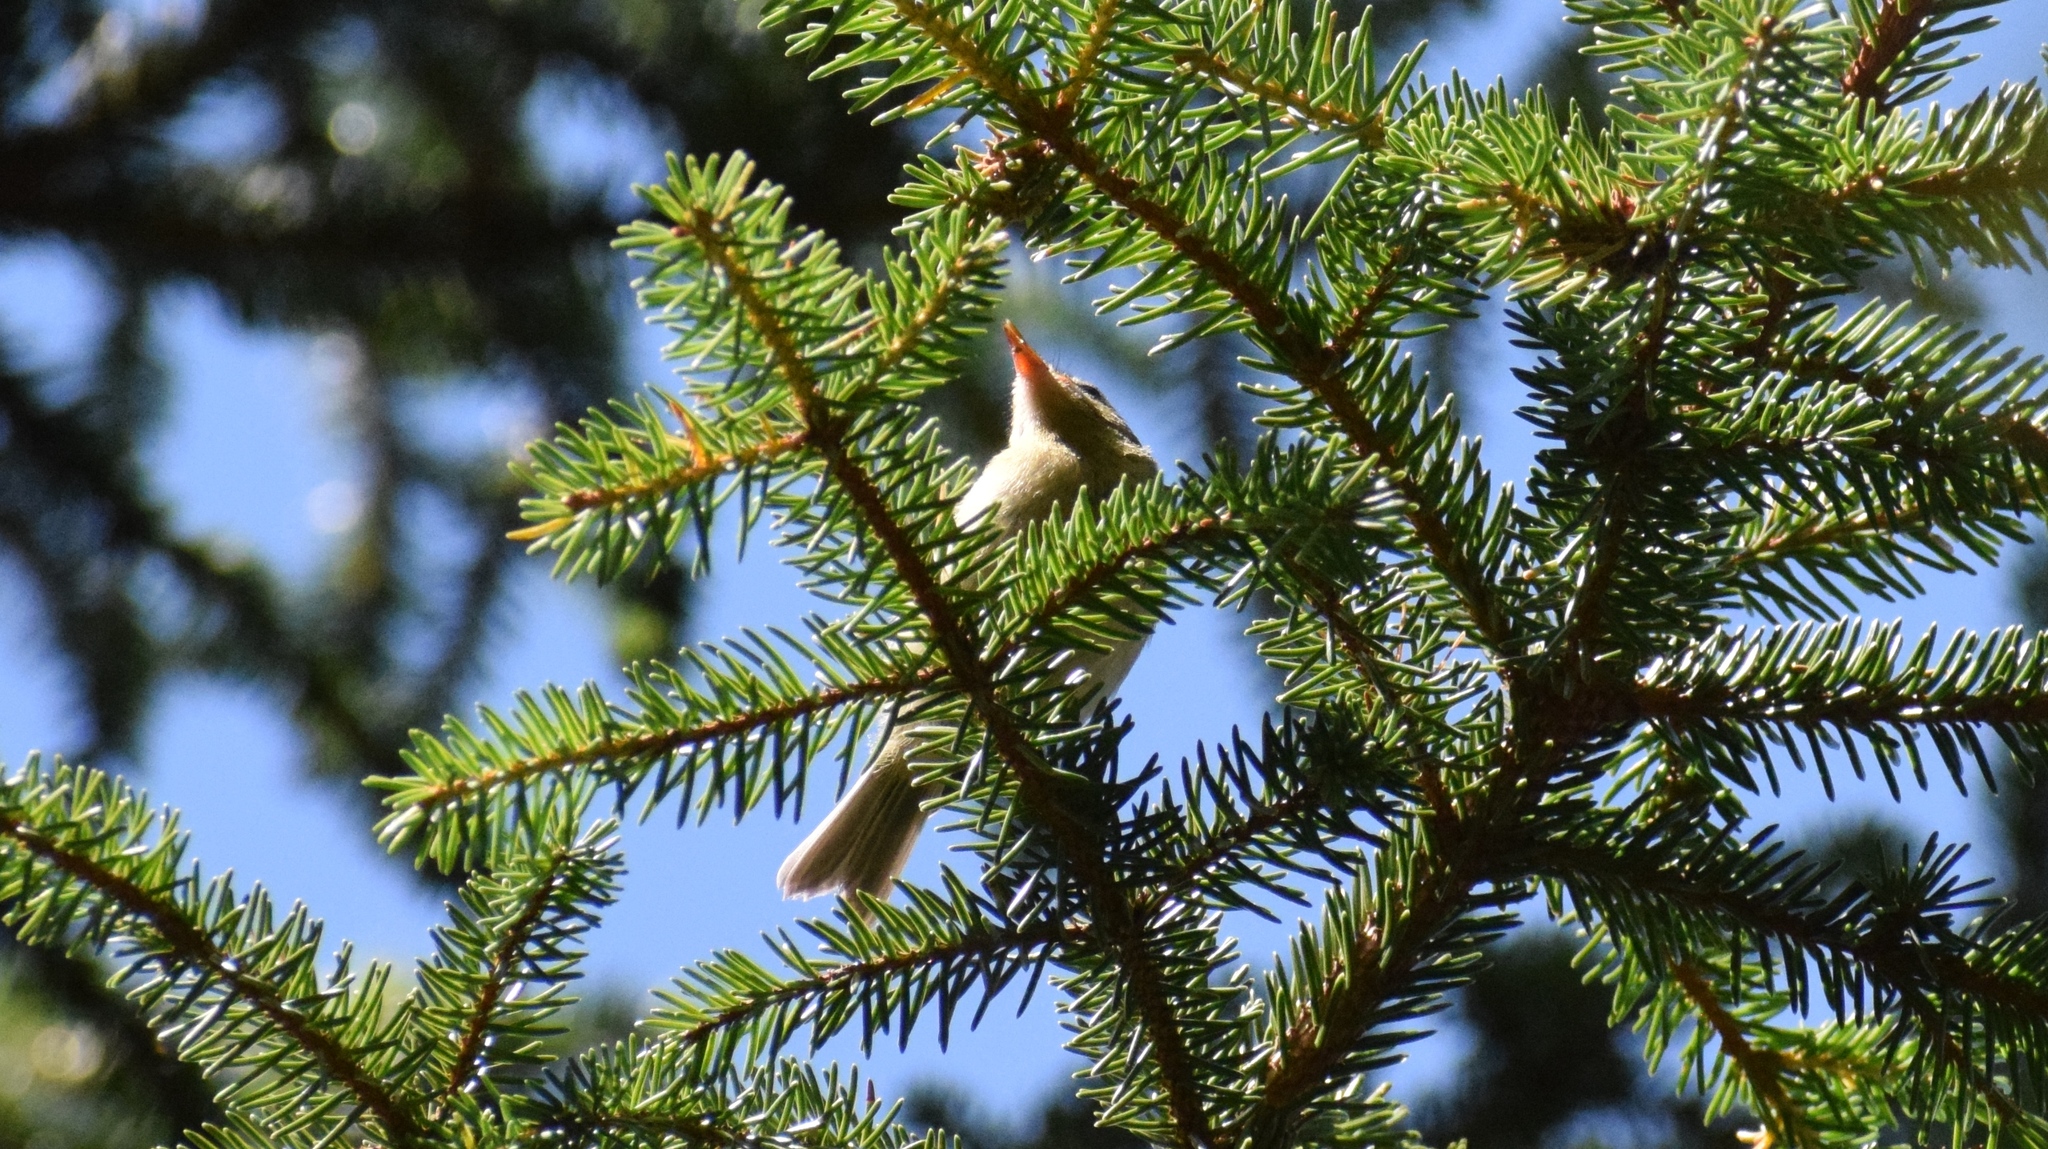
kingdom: Animalia
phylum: Chordata
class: Aves
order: Passeriformes
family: Regulidae
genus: Regulus
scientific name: Regulus ignicapilla
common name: Firecrest
